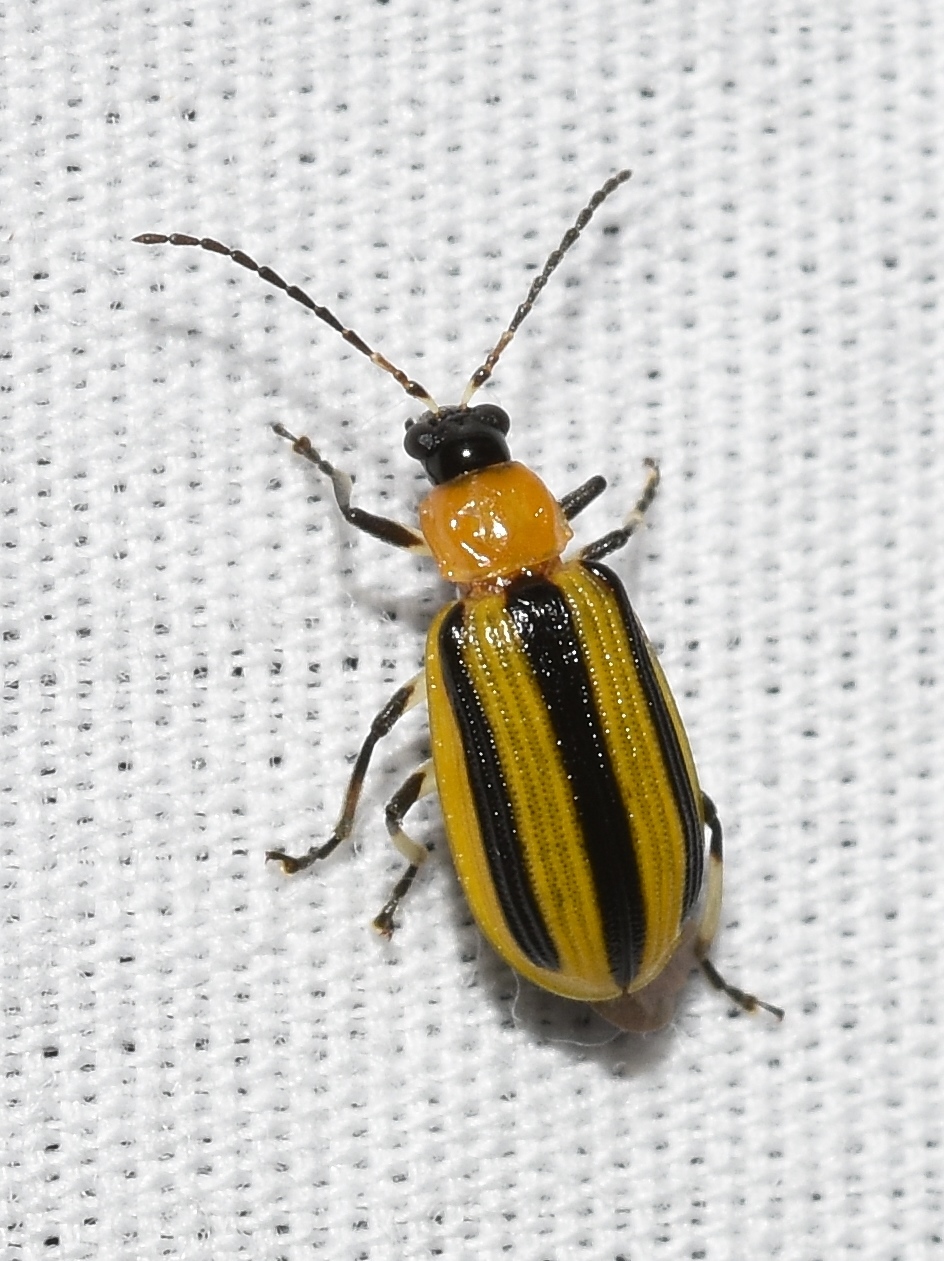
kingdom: Animalia
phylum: Arthropoda
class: Insecta
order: Coleoptera
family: Chrysomelidae
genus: Acalymma
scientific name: Acalymma vittatum
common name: Striped cucumber beetle
